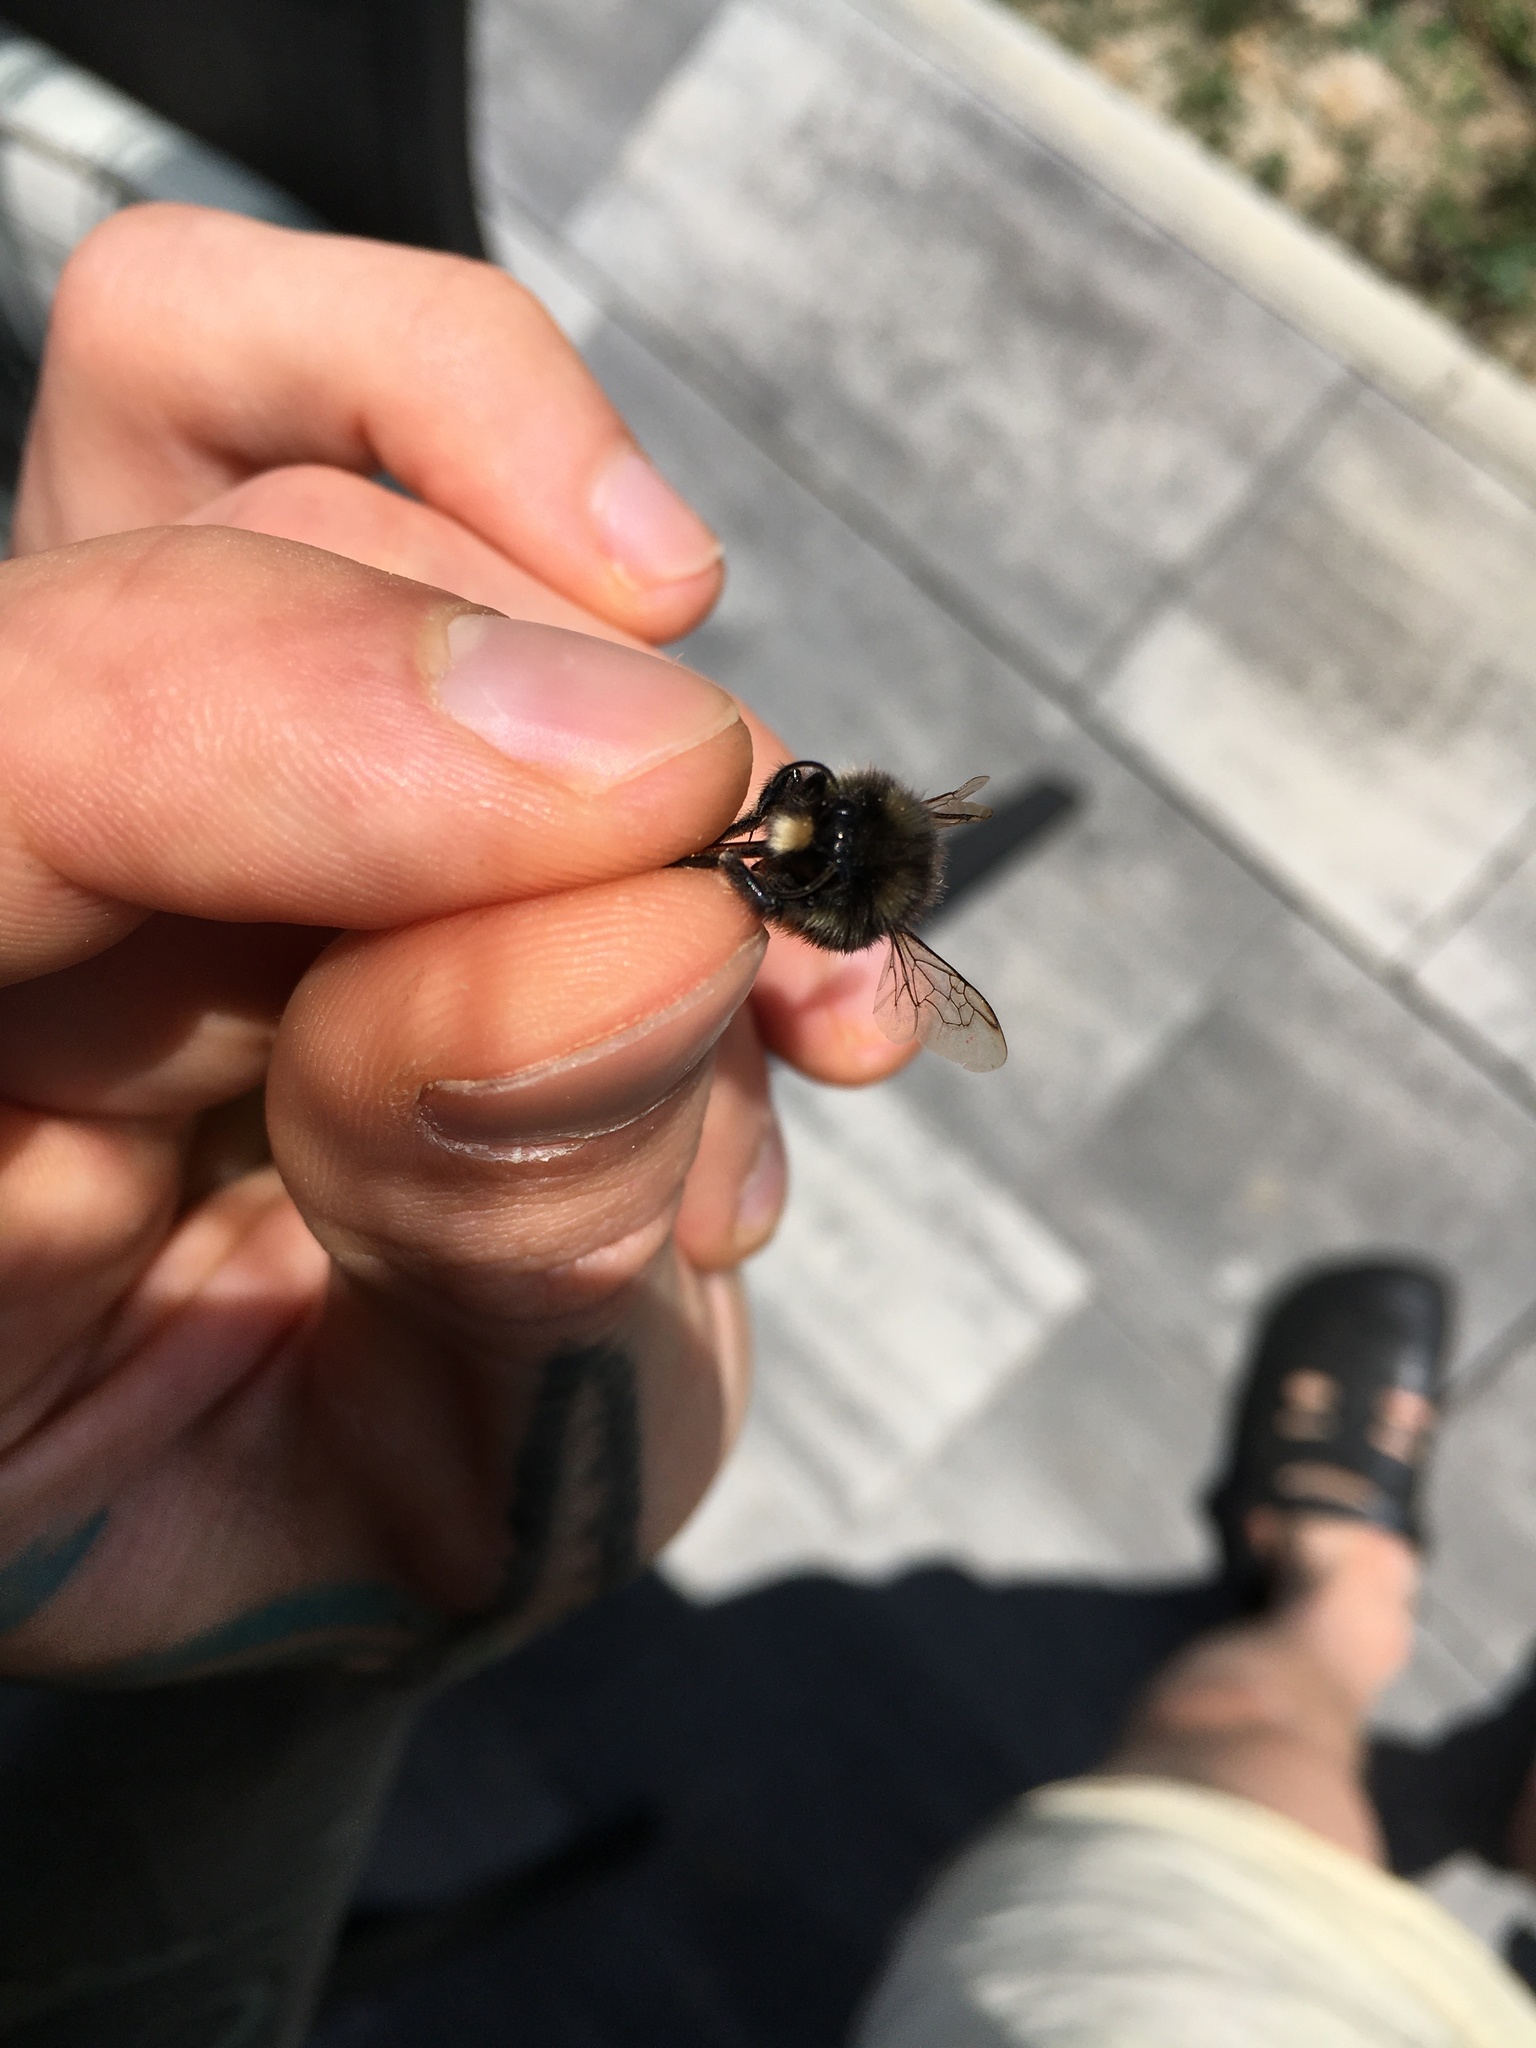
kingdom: Animalia
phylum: Arthropoda
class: Insecta
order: Hymenoptera
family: Apidae
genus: Bombus
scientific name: Bombus lapidarius
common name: Large red-tailed humble-bee
